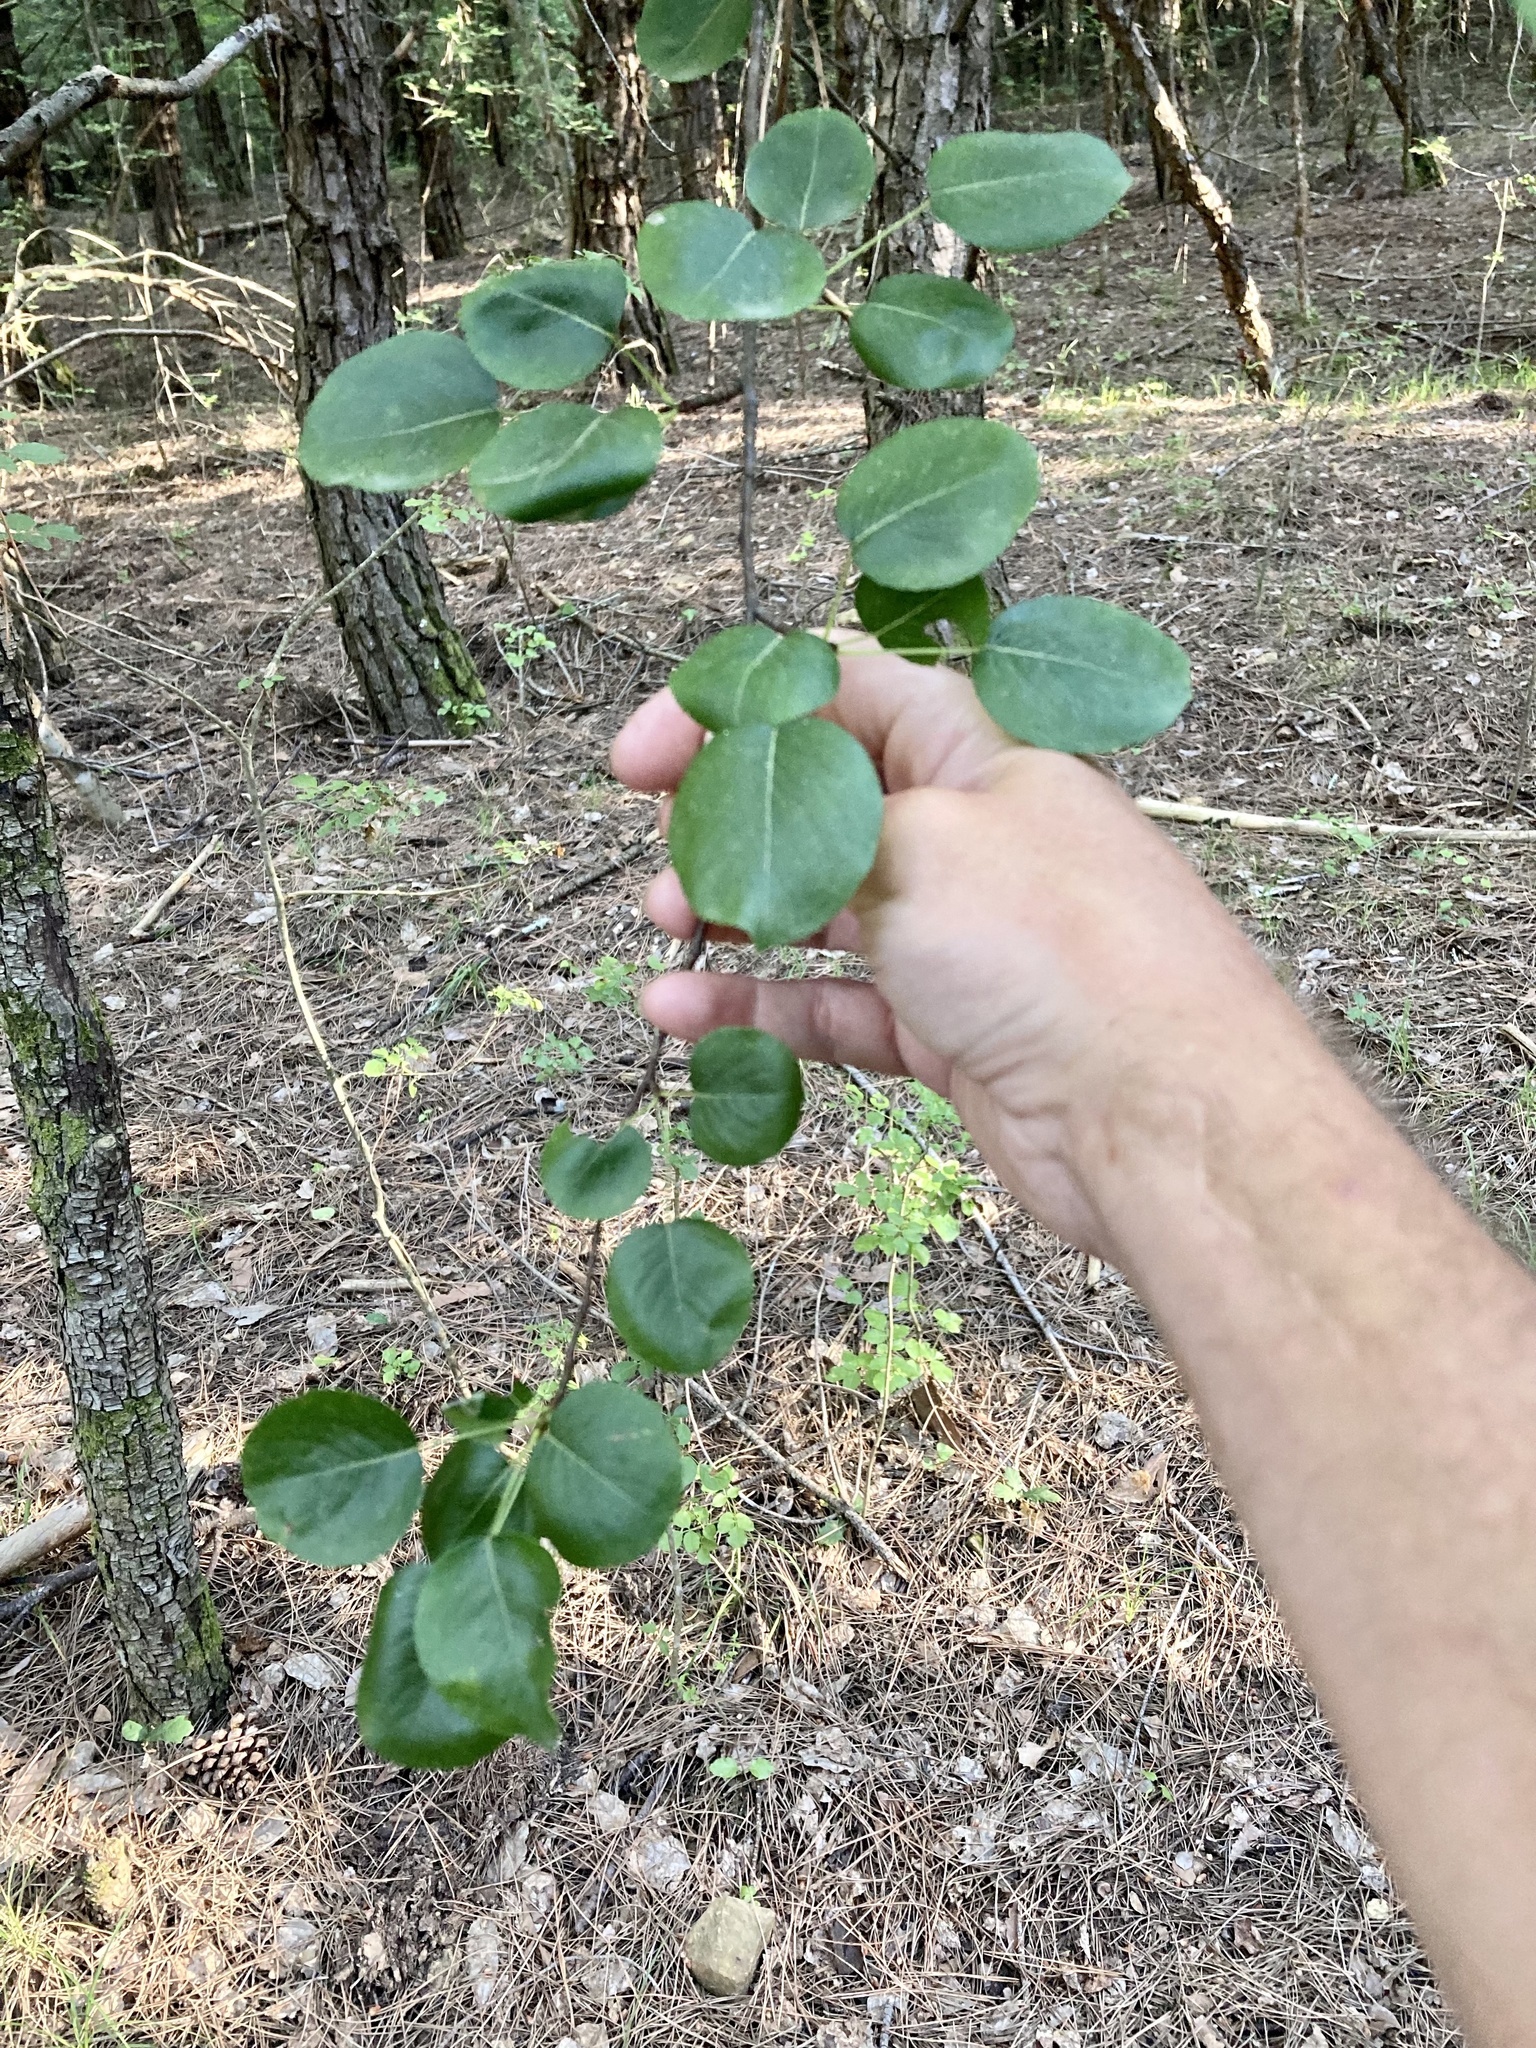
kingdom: Plantae
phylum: Tracheophyta
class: Magnoliopsida
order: Rosales
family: Rosaceae
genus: Pyrus
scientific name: Pyrus
